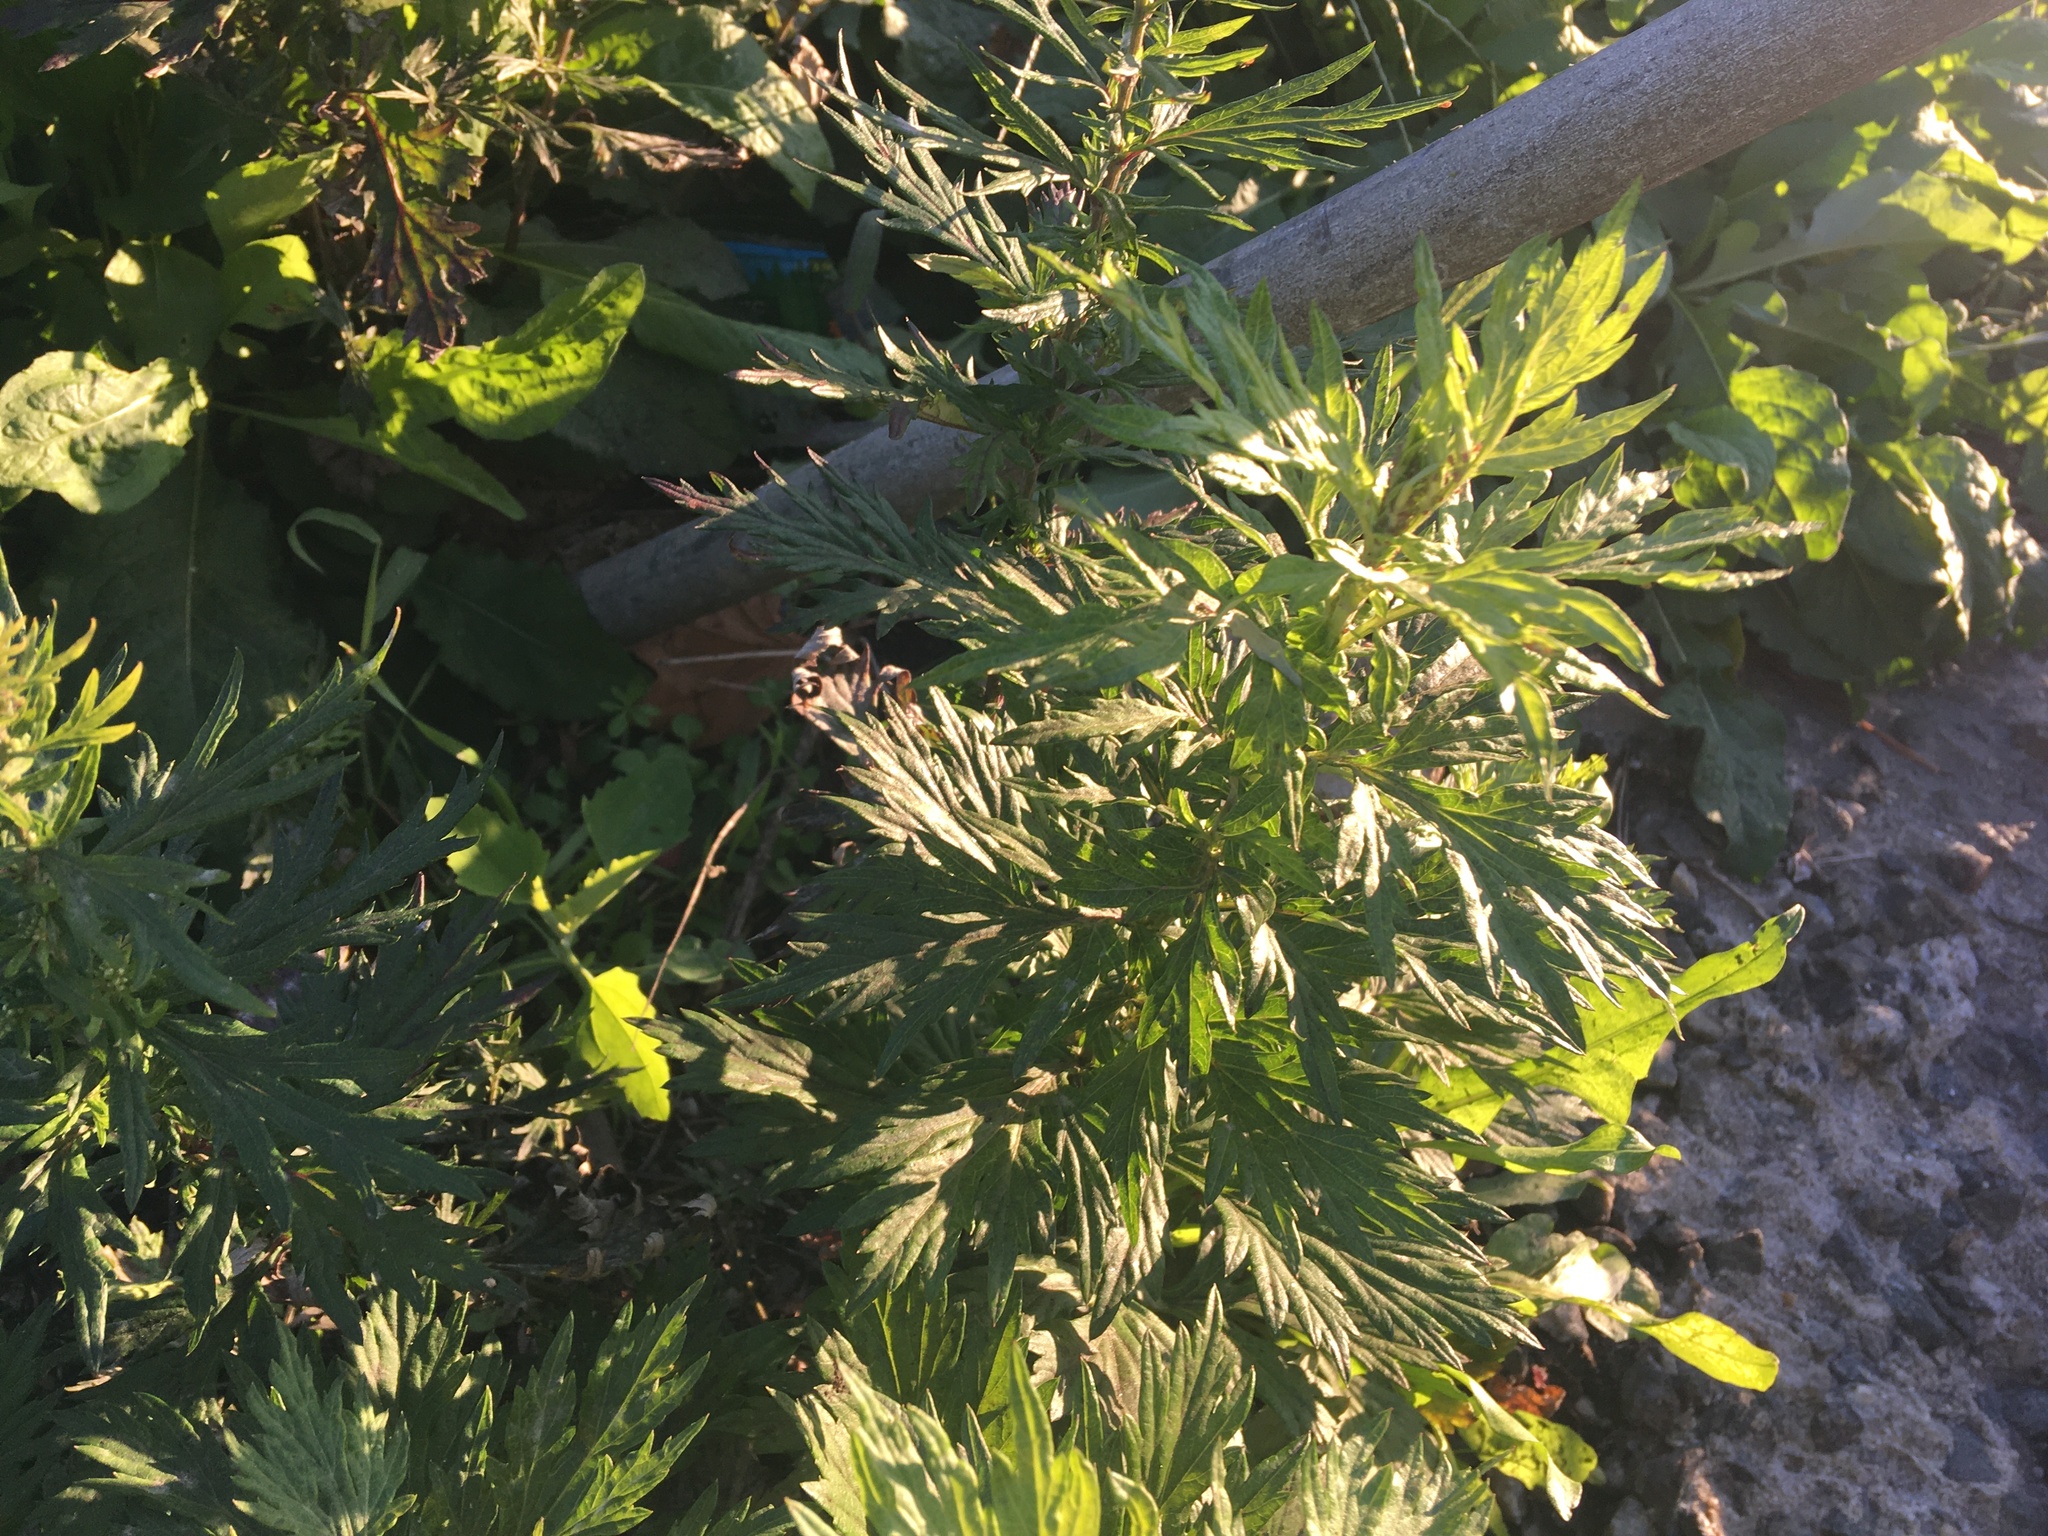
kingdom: Plantae
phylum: Tracheophyta
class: Magnoliopsida
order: Asterales
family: Asteraceae
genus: Artemisia
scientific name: Artemisia vulgaris
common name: Mugwort
